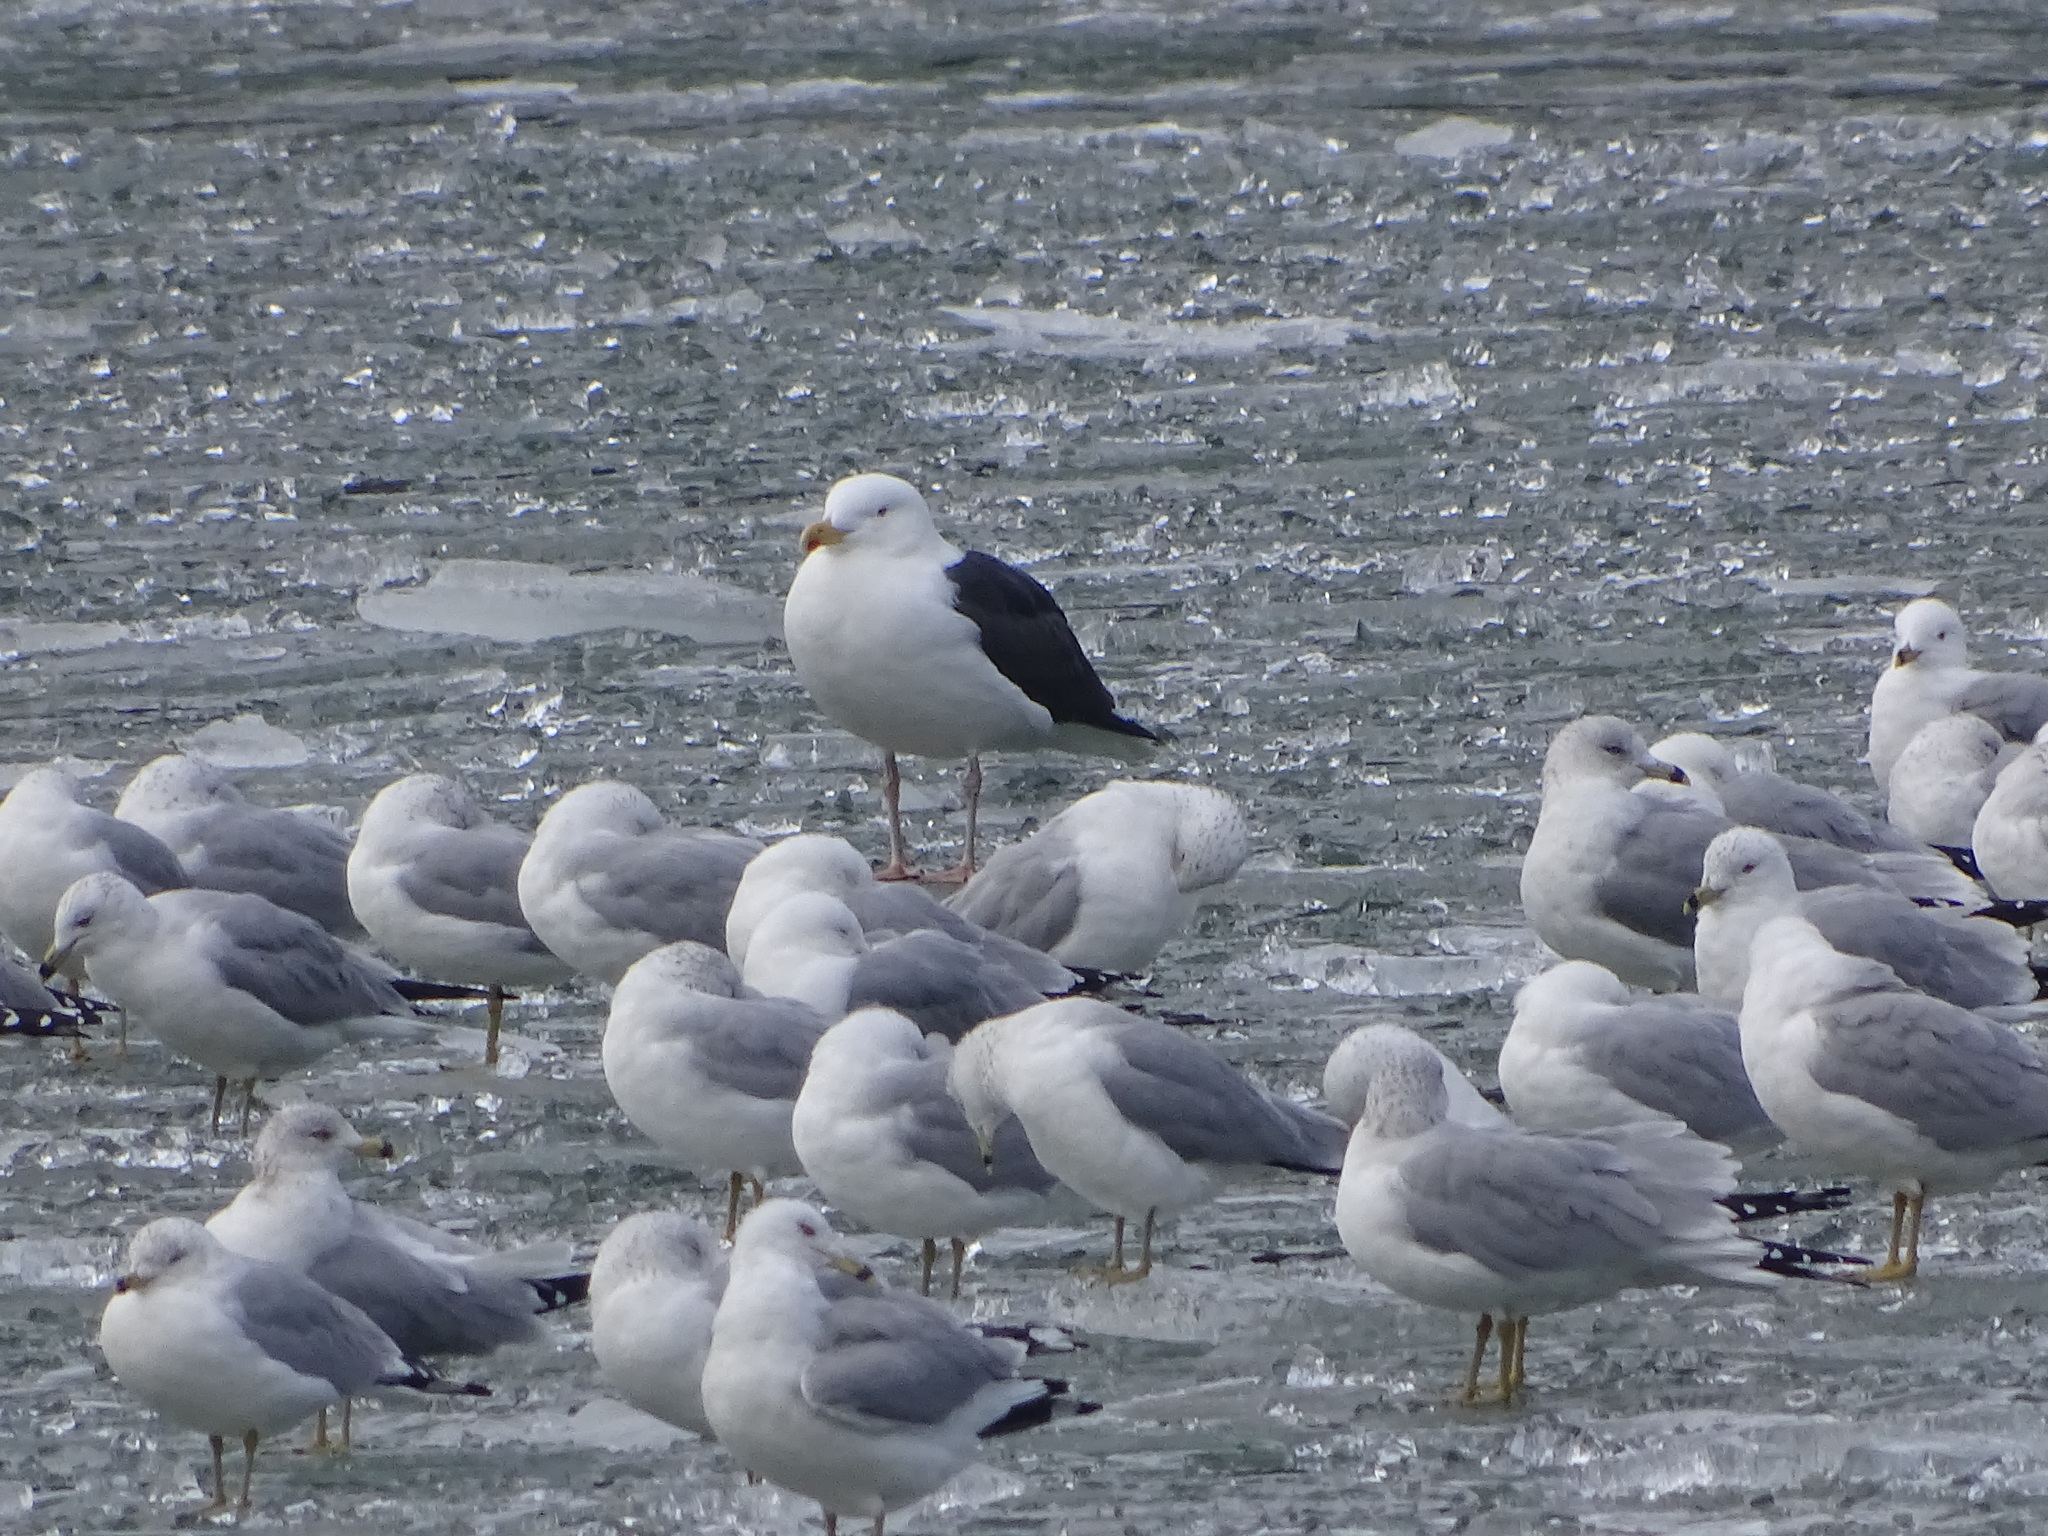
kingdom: Animalia
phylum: Chordata
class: Aves
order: Charadriiformes
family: Laridae
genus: Larus
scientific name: Larus marinus
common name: Great black-backed gull
